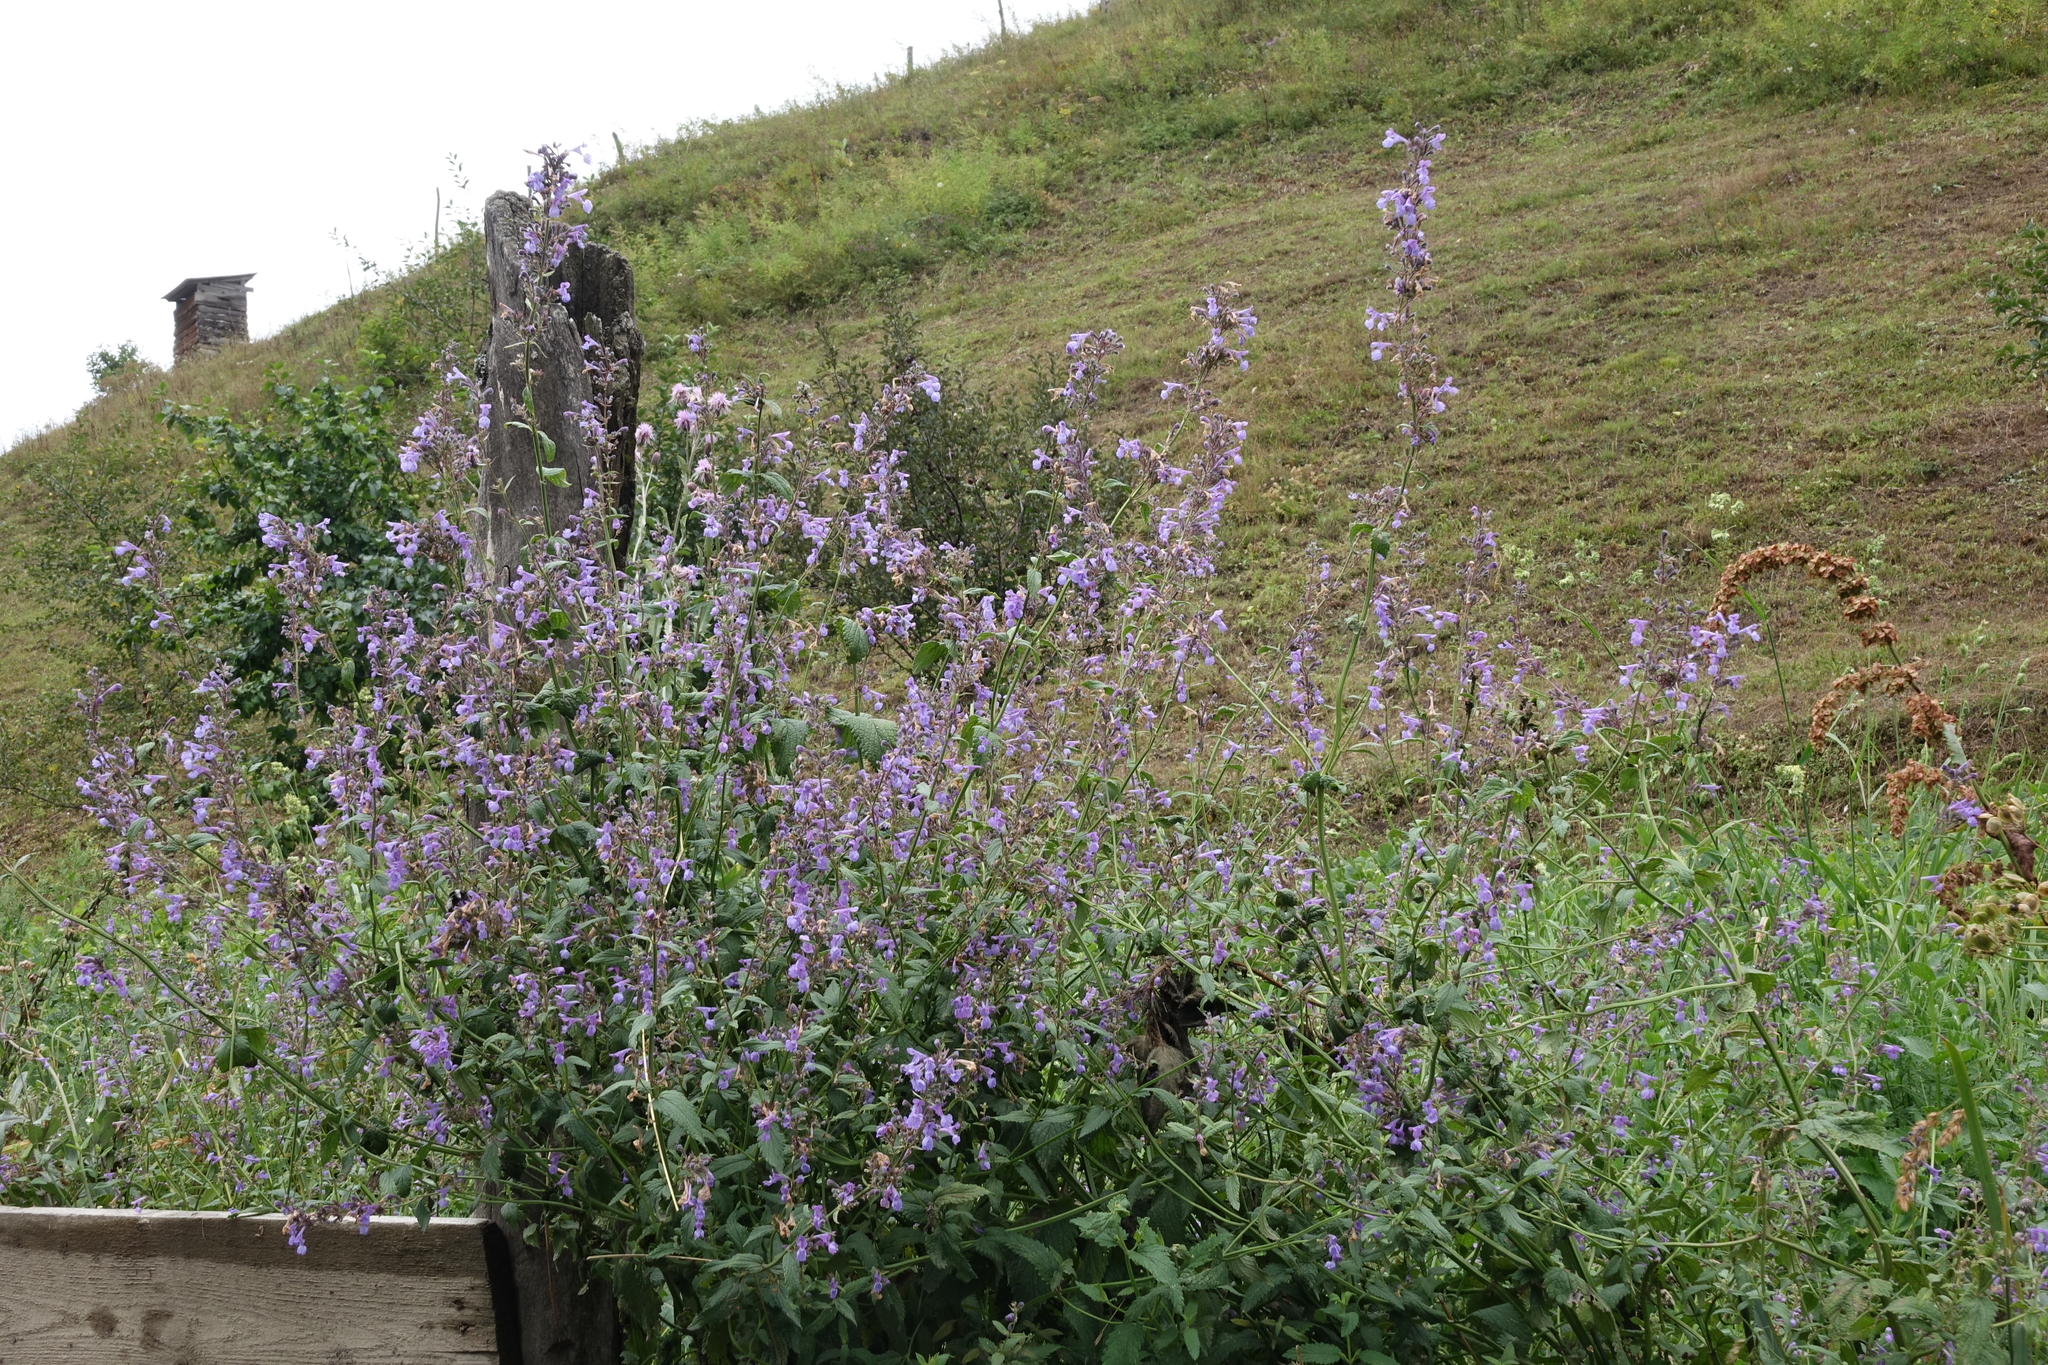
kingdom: Plantae
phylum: Tracheophyta
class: Magnoliopsida
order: Lamiales
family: Lamiaceae
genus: Nepeta
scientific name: Nepeta grandiflora
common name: Caucasus catmint
